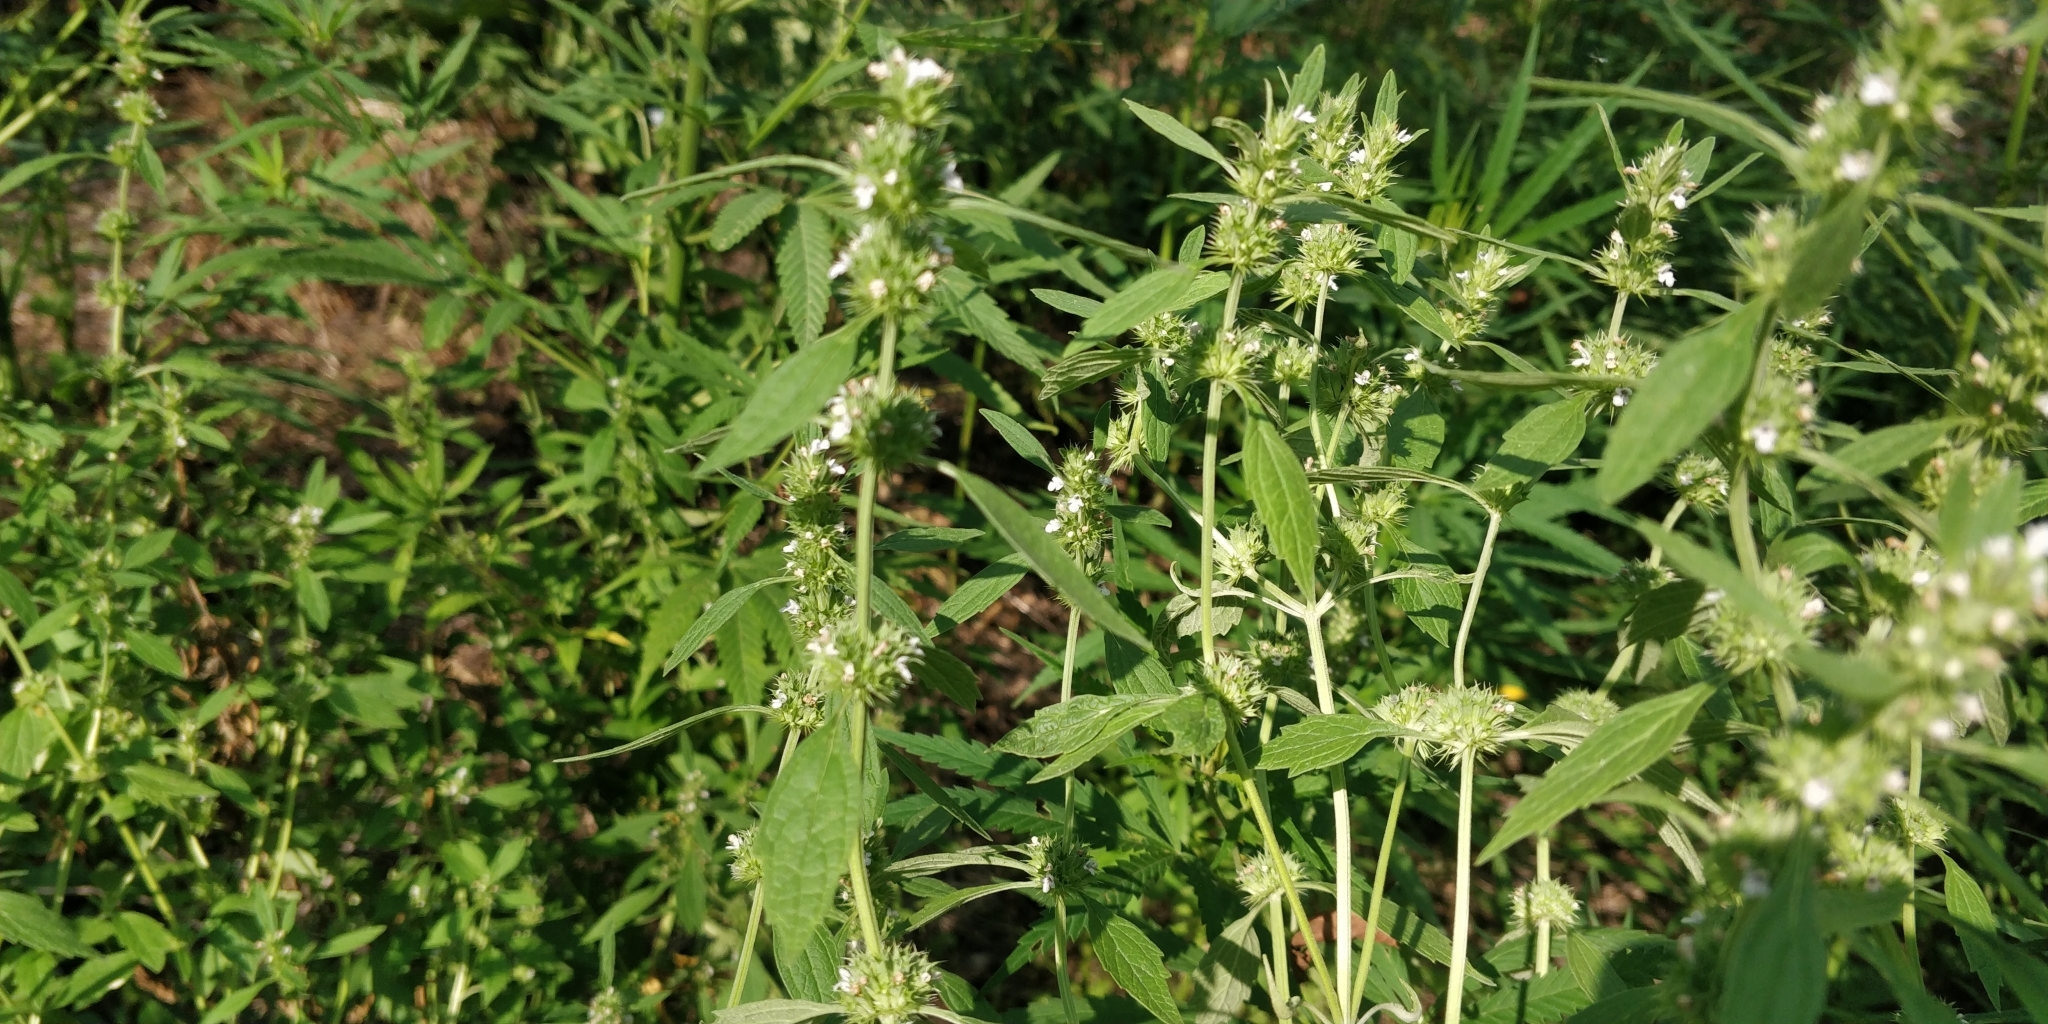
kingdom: Plantae
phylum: Tracheophyta
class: Magnoliopsida
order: Lamiales
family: Lamiaceae
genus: Chaiturus
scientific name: Chaiturus marrubiastrum
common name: Lion's tail
